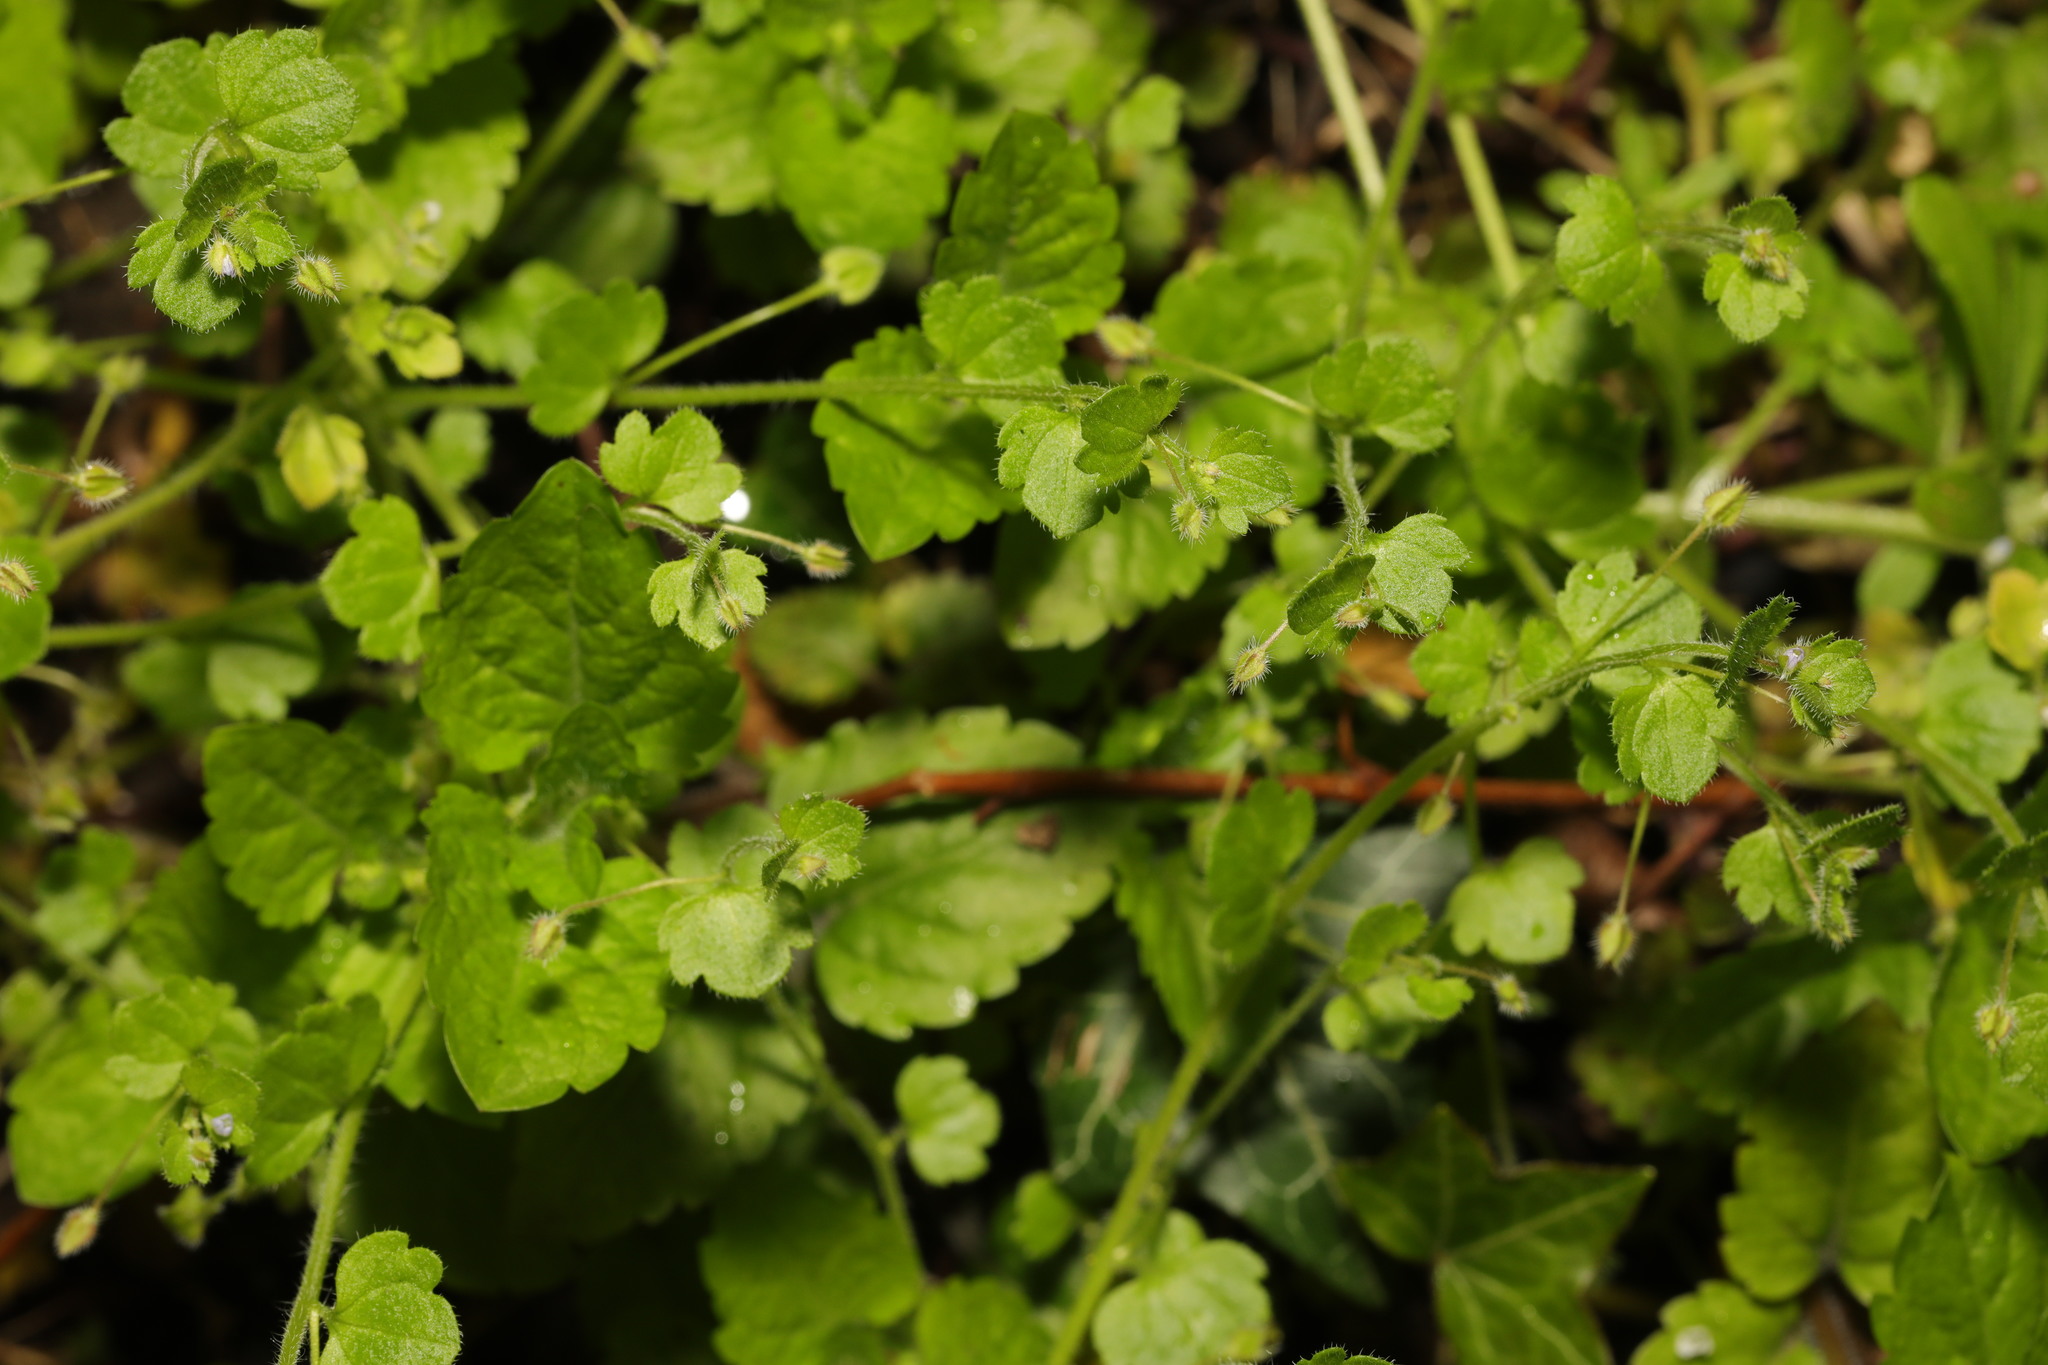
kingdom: Plantae
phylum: Tracheophyta
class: Magnoliopsida
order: Lamiales
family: Plantaginaceae
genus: Veronica
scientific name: Veronica sublobata
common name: False ivy-leaved speedwell
